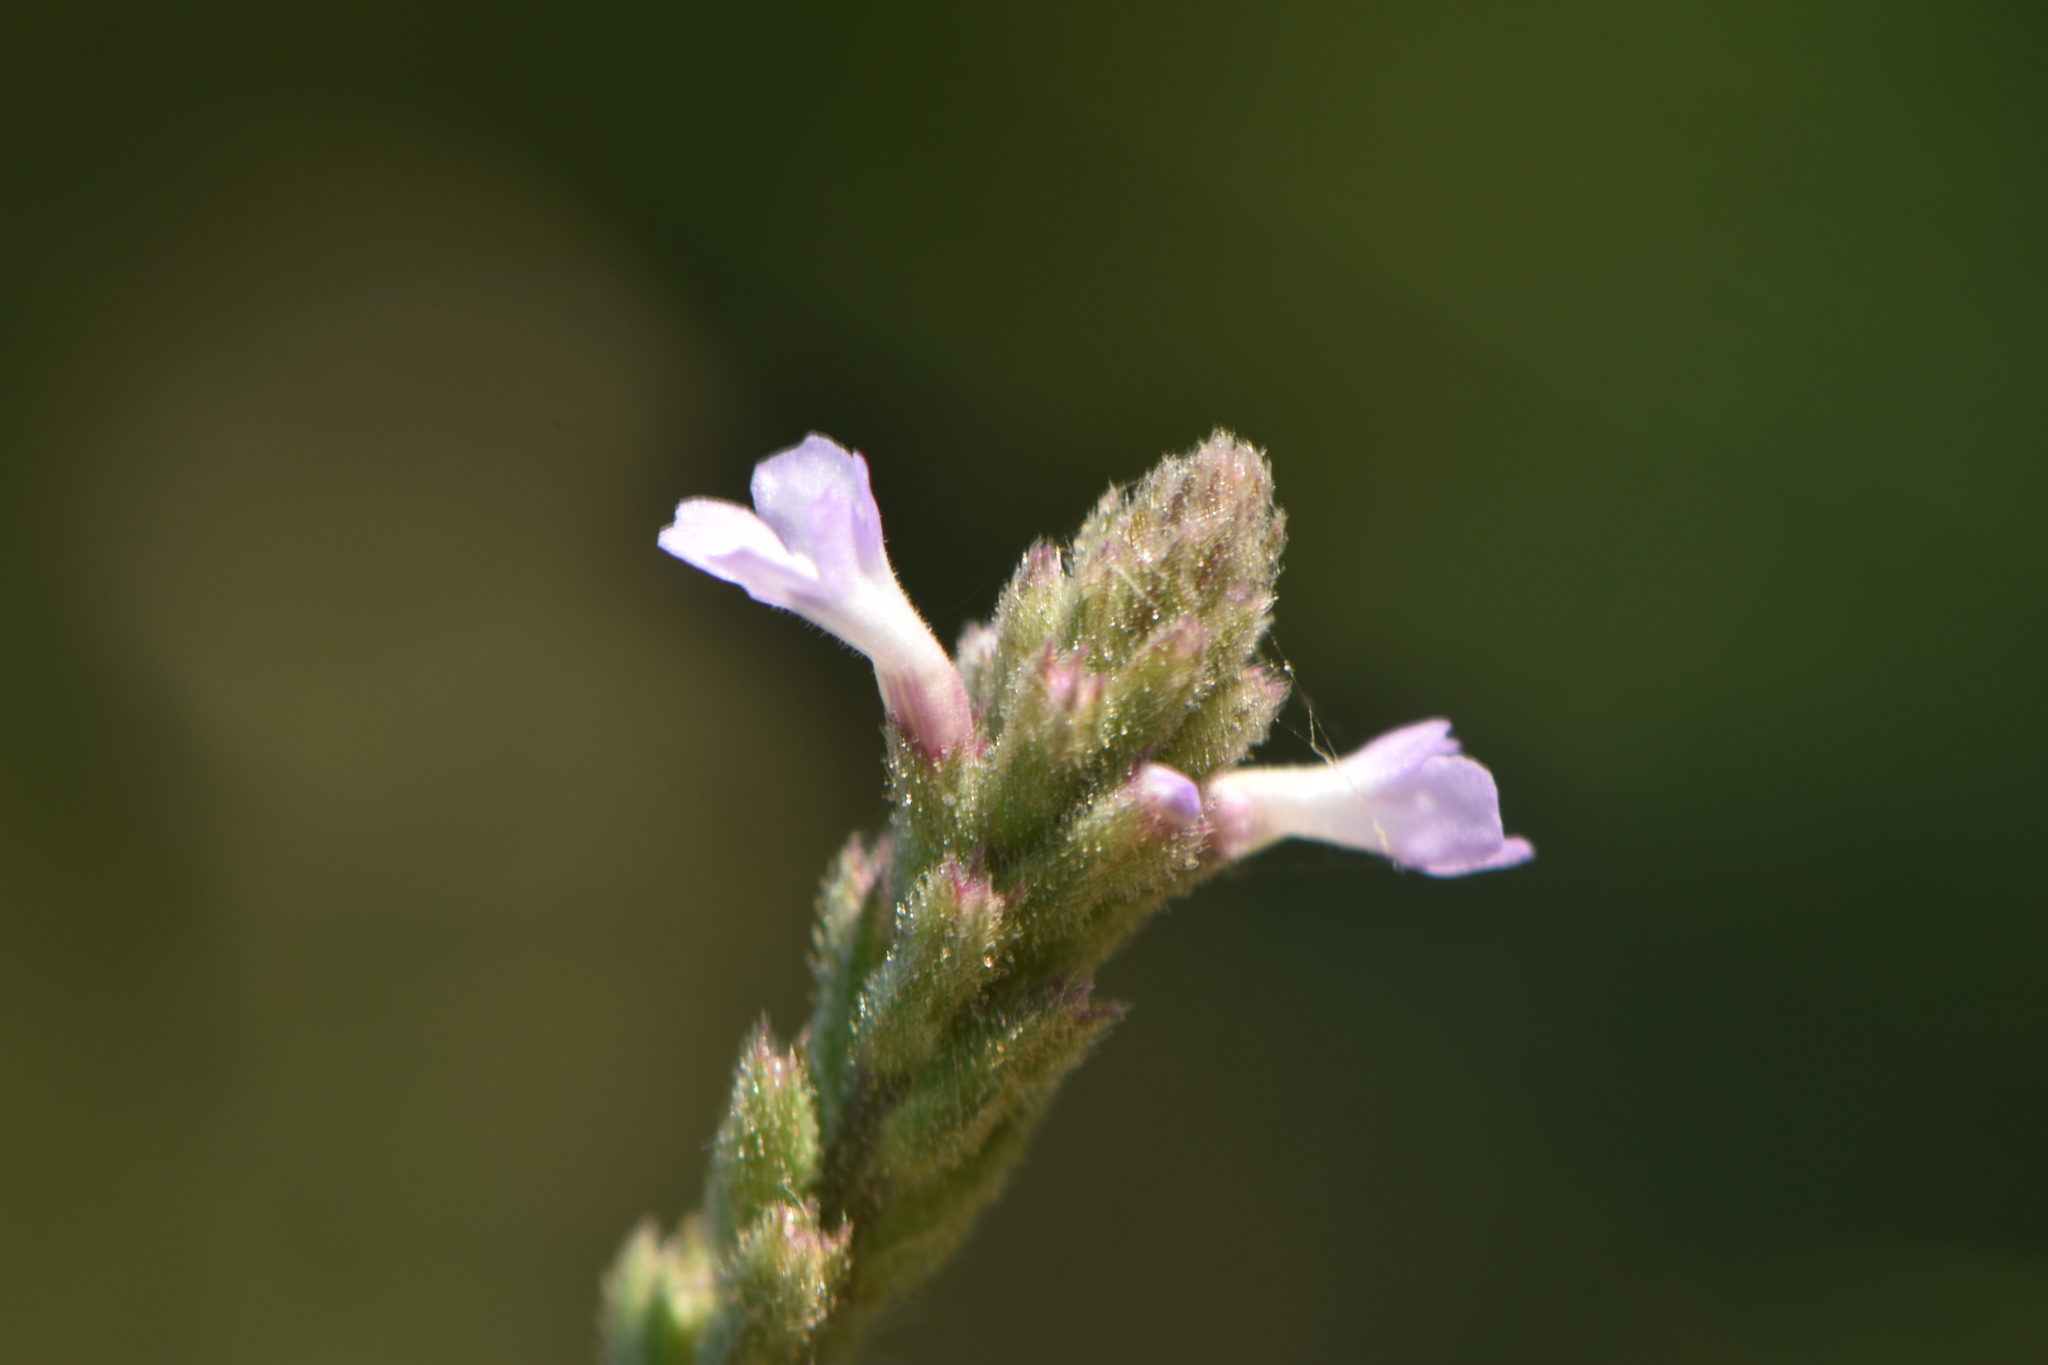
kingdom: Plantae
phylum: Tracheophyta
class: Magnoliopsida
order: Lamiales
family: Verbenaceae
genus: Verbena
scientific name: Verbena officinalis
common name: Vervain
